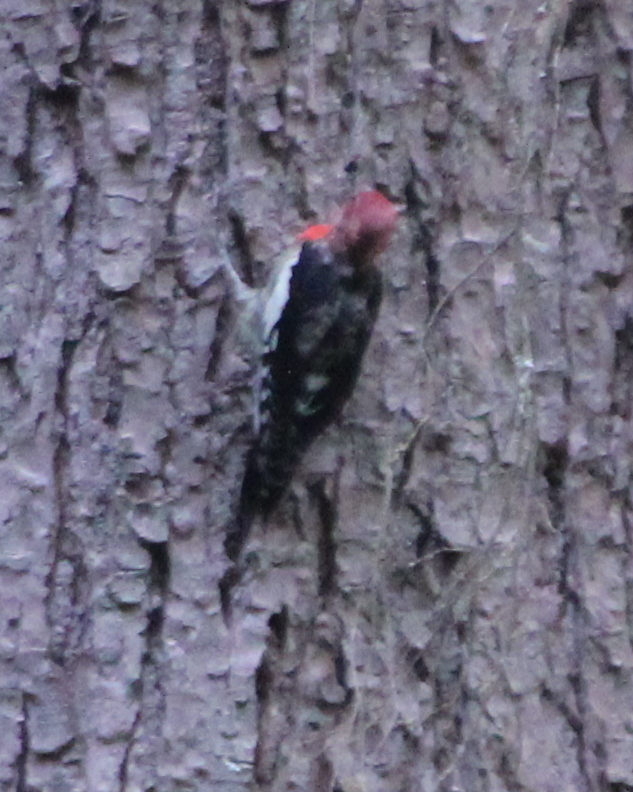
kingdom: Animalia
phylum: Chordata
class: Aves
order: Piciformes
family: Picidae
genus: Sphyrapicus
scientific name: Sphyrapicus ruber
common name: Red-breasted sapsucker
